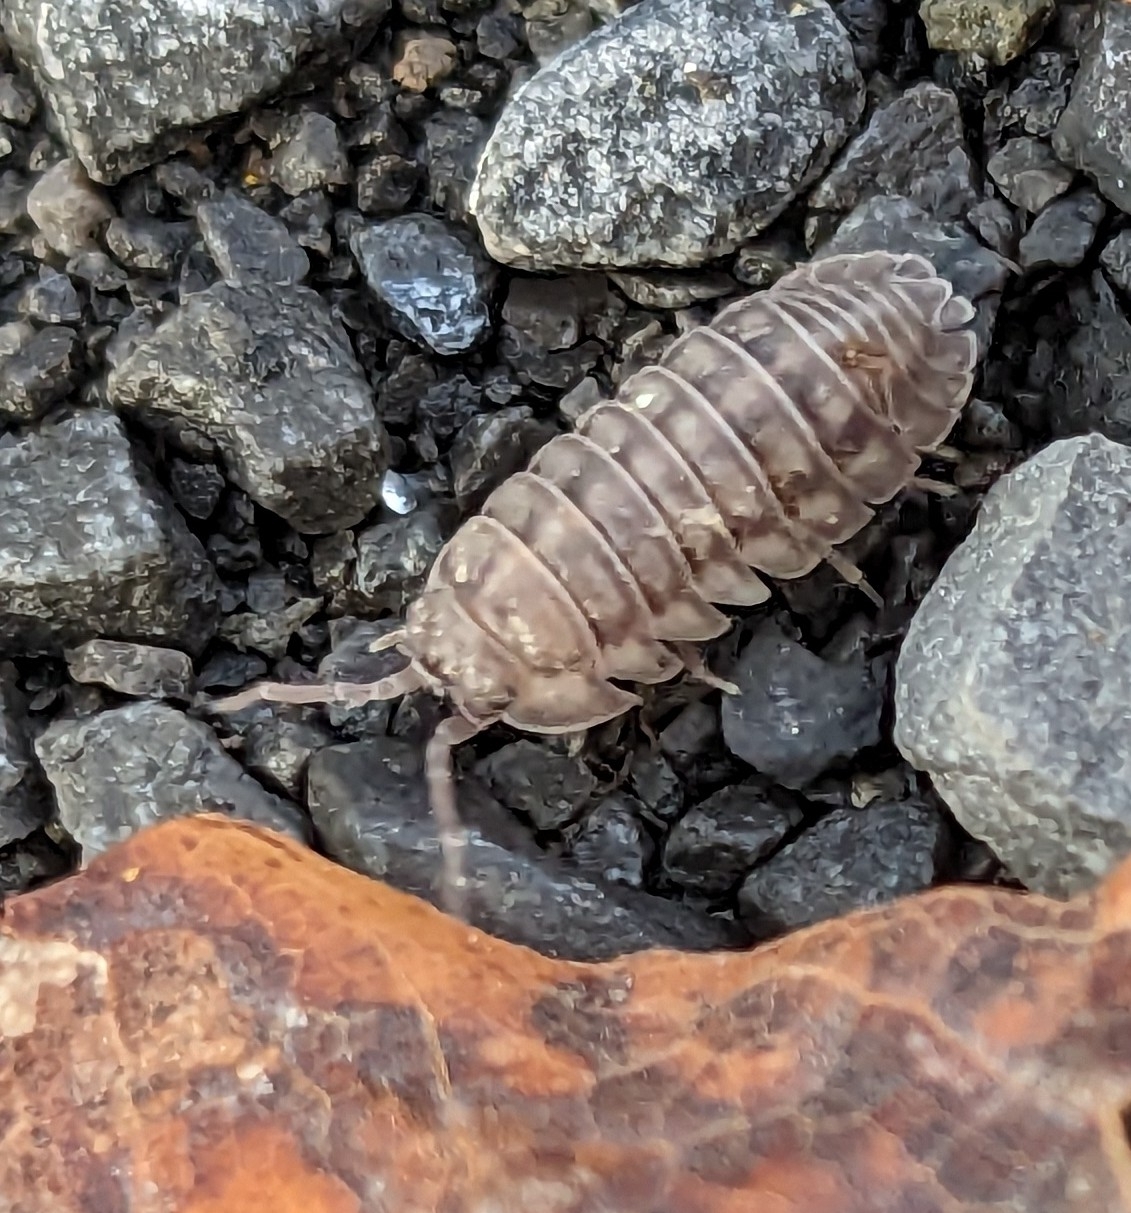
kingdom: Animalia
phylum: Arthropoda
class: Malacostraca
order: Isopoda
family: Armadillidiidae
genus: Armadillidium
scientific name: Armadillidium nasatum
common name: Isopod
